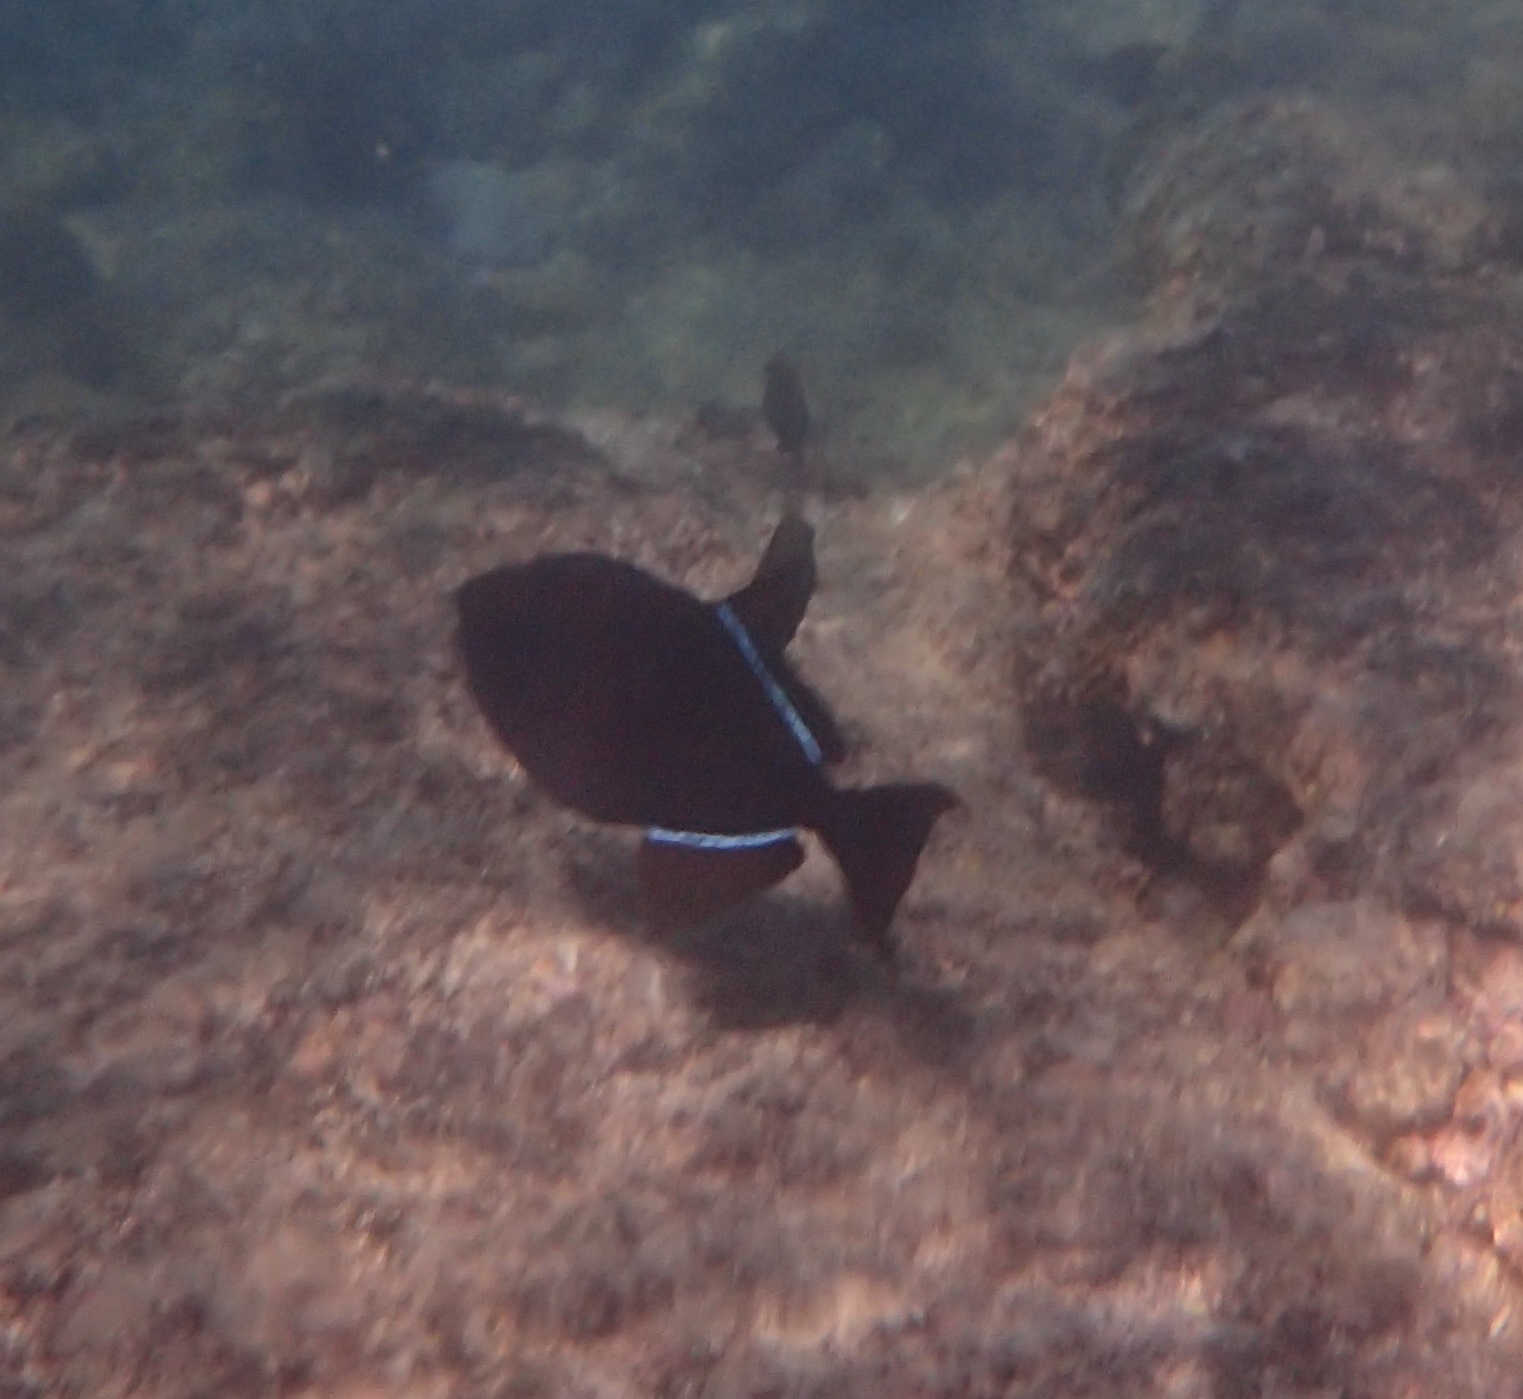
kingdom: Animalia
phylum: Chordata
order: Tetraodontiformes
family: Balistidae
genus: Melichthys
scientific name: Melichthys niger
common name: Black durgon
